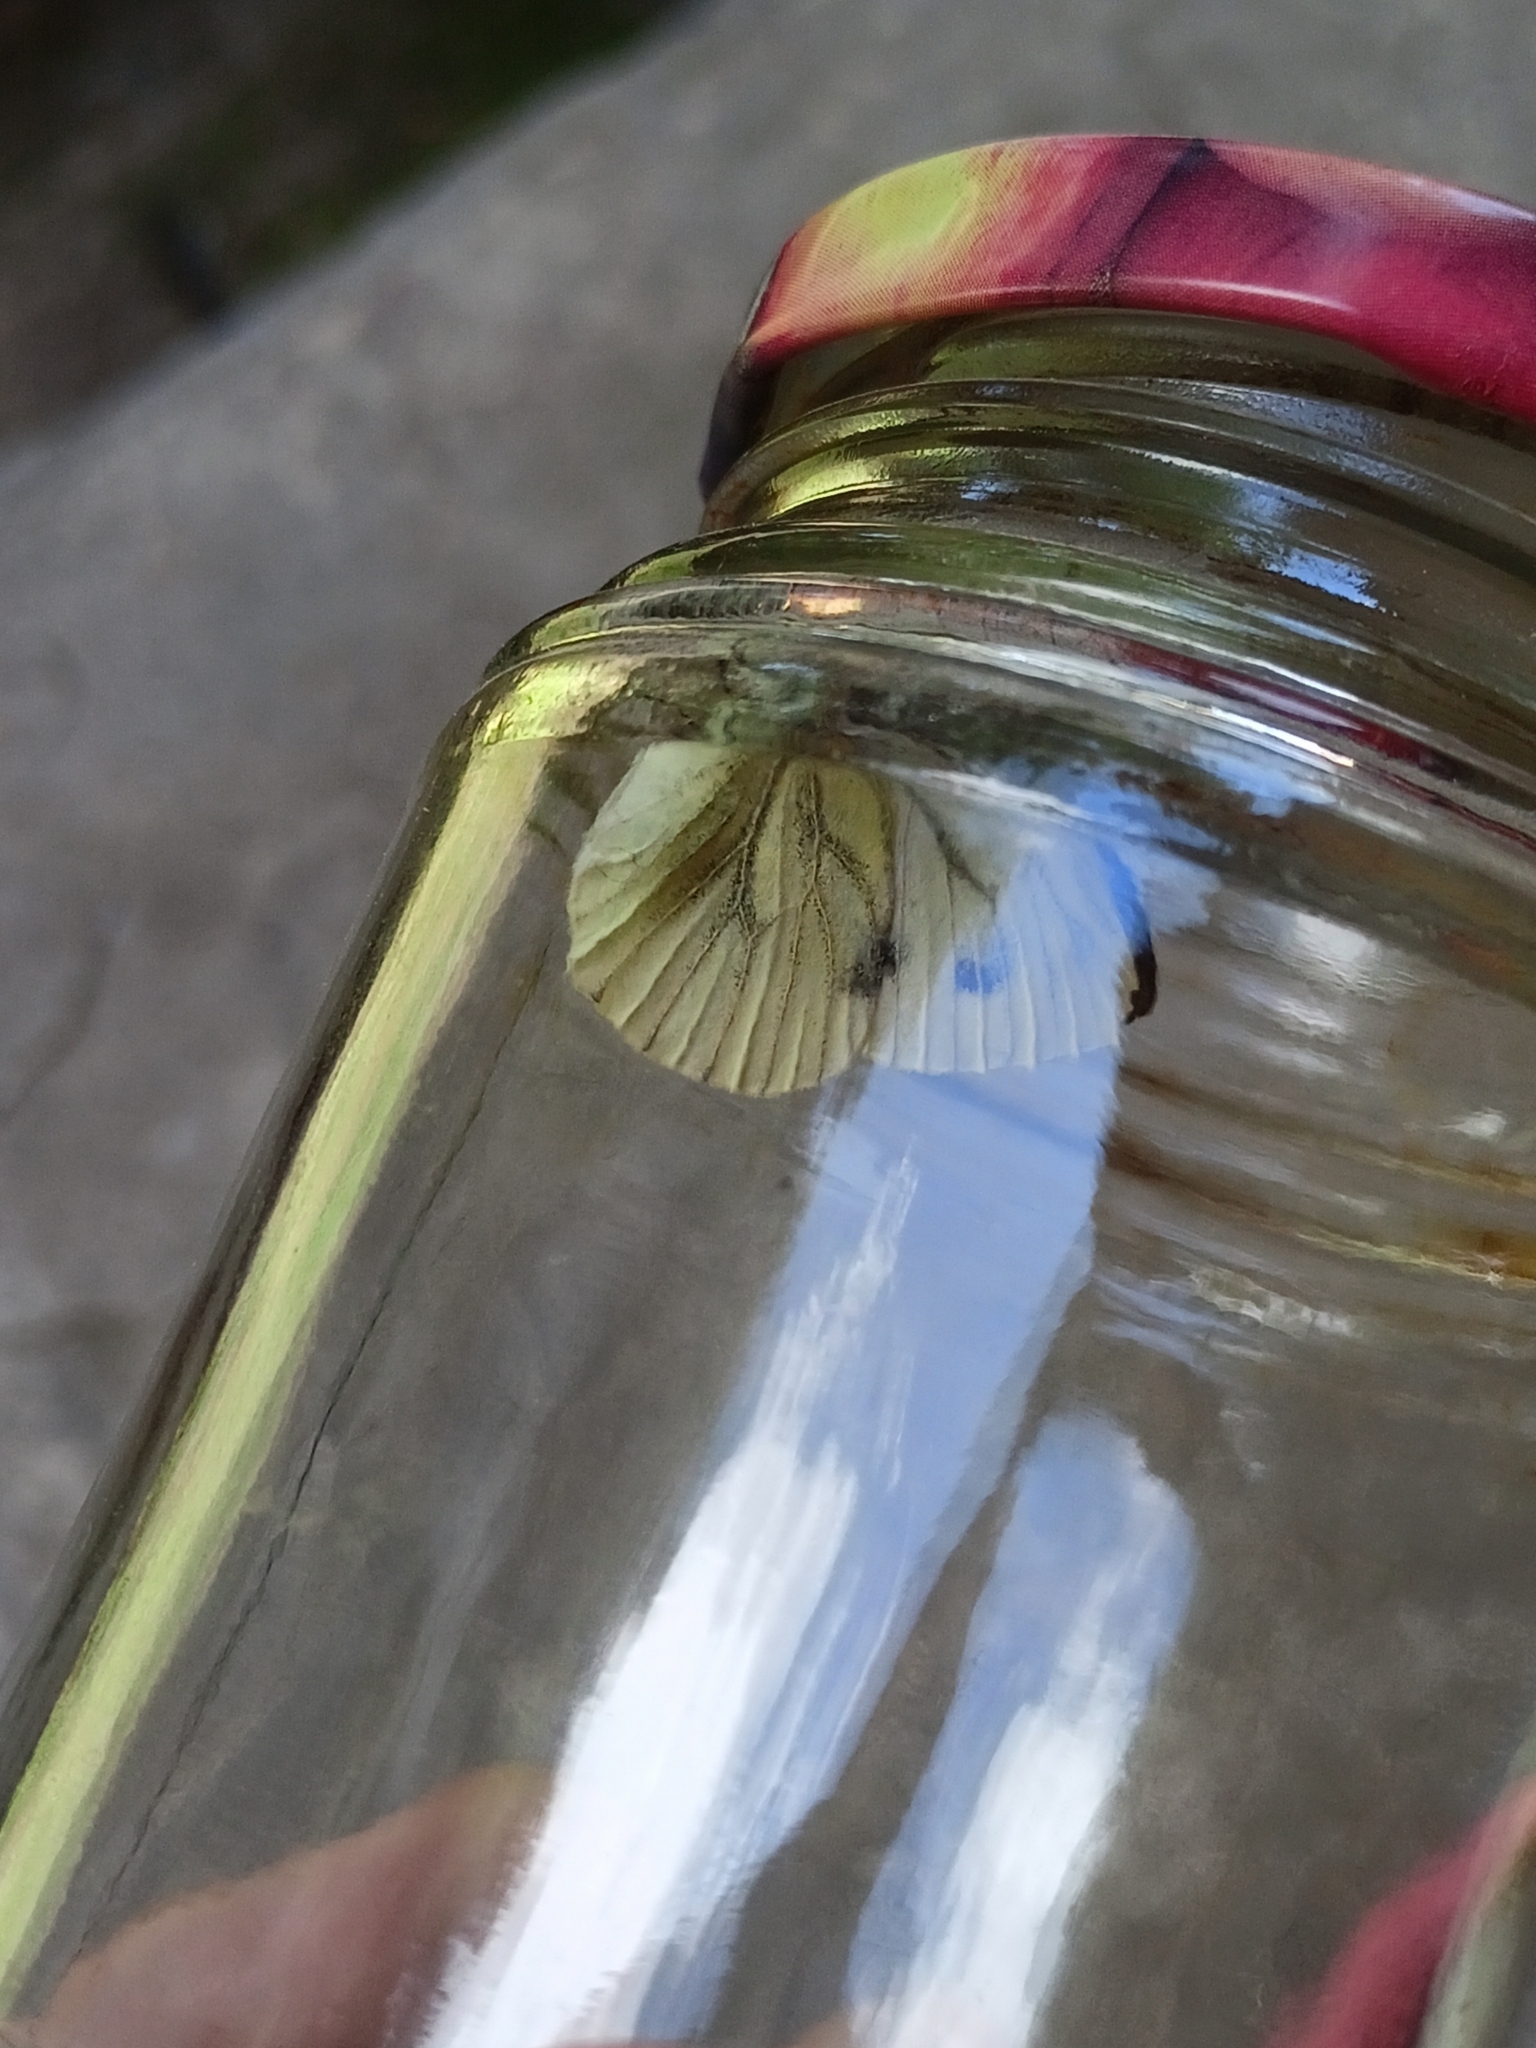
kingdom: Animalia
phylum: Arthropoda
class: Insecta
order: Lepidoptera
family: Pieridae
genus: Pieris
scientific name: Pieris napi
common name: Green-veined white
